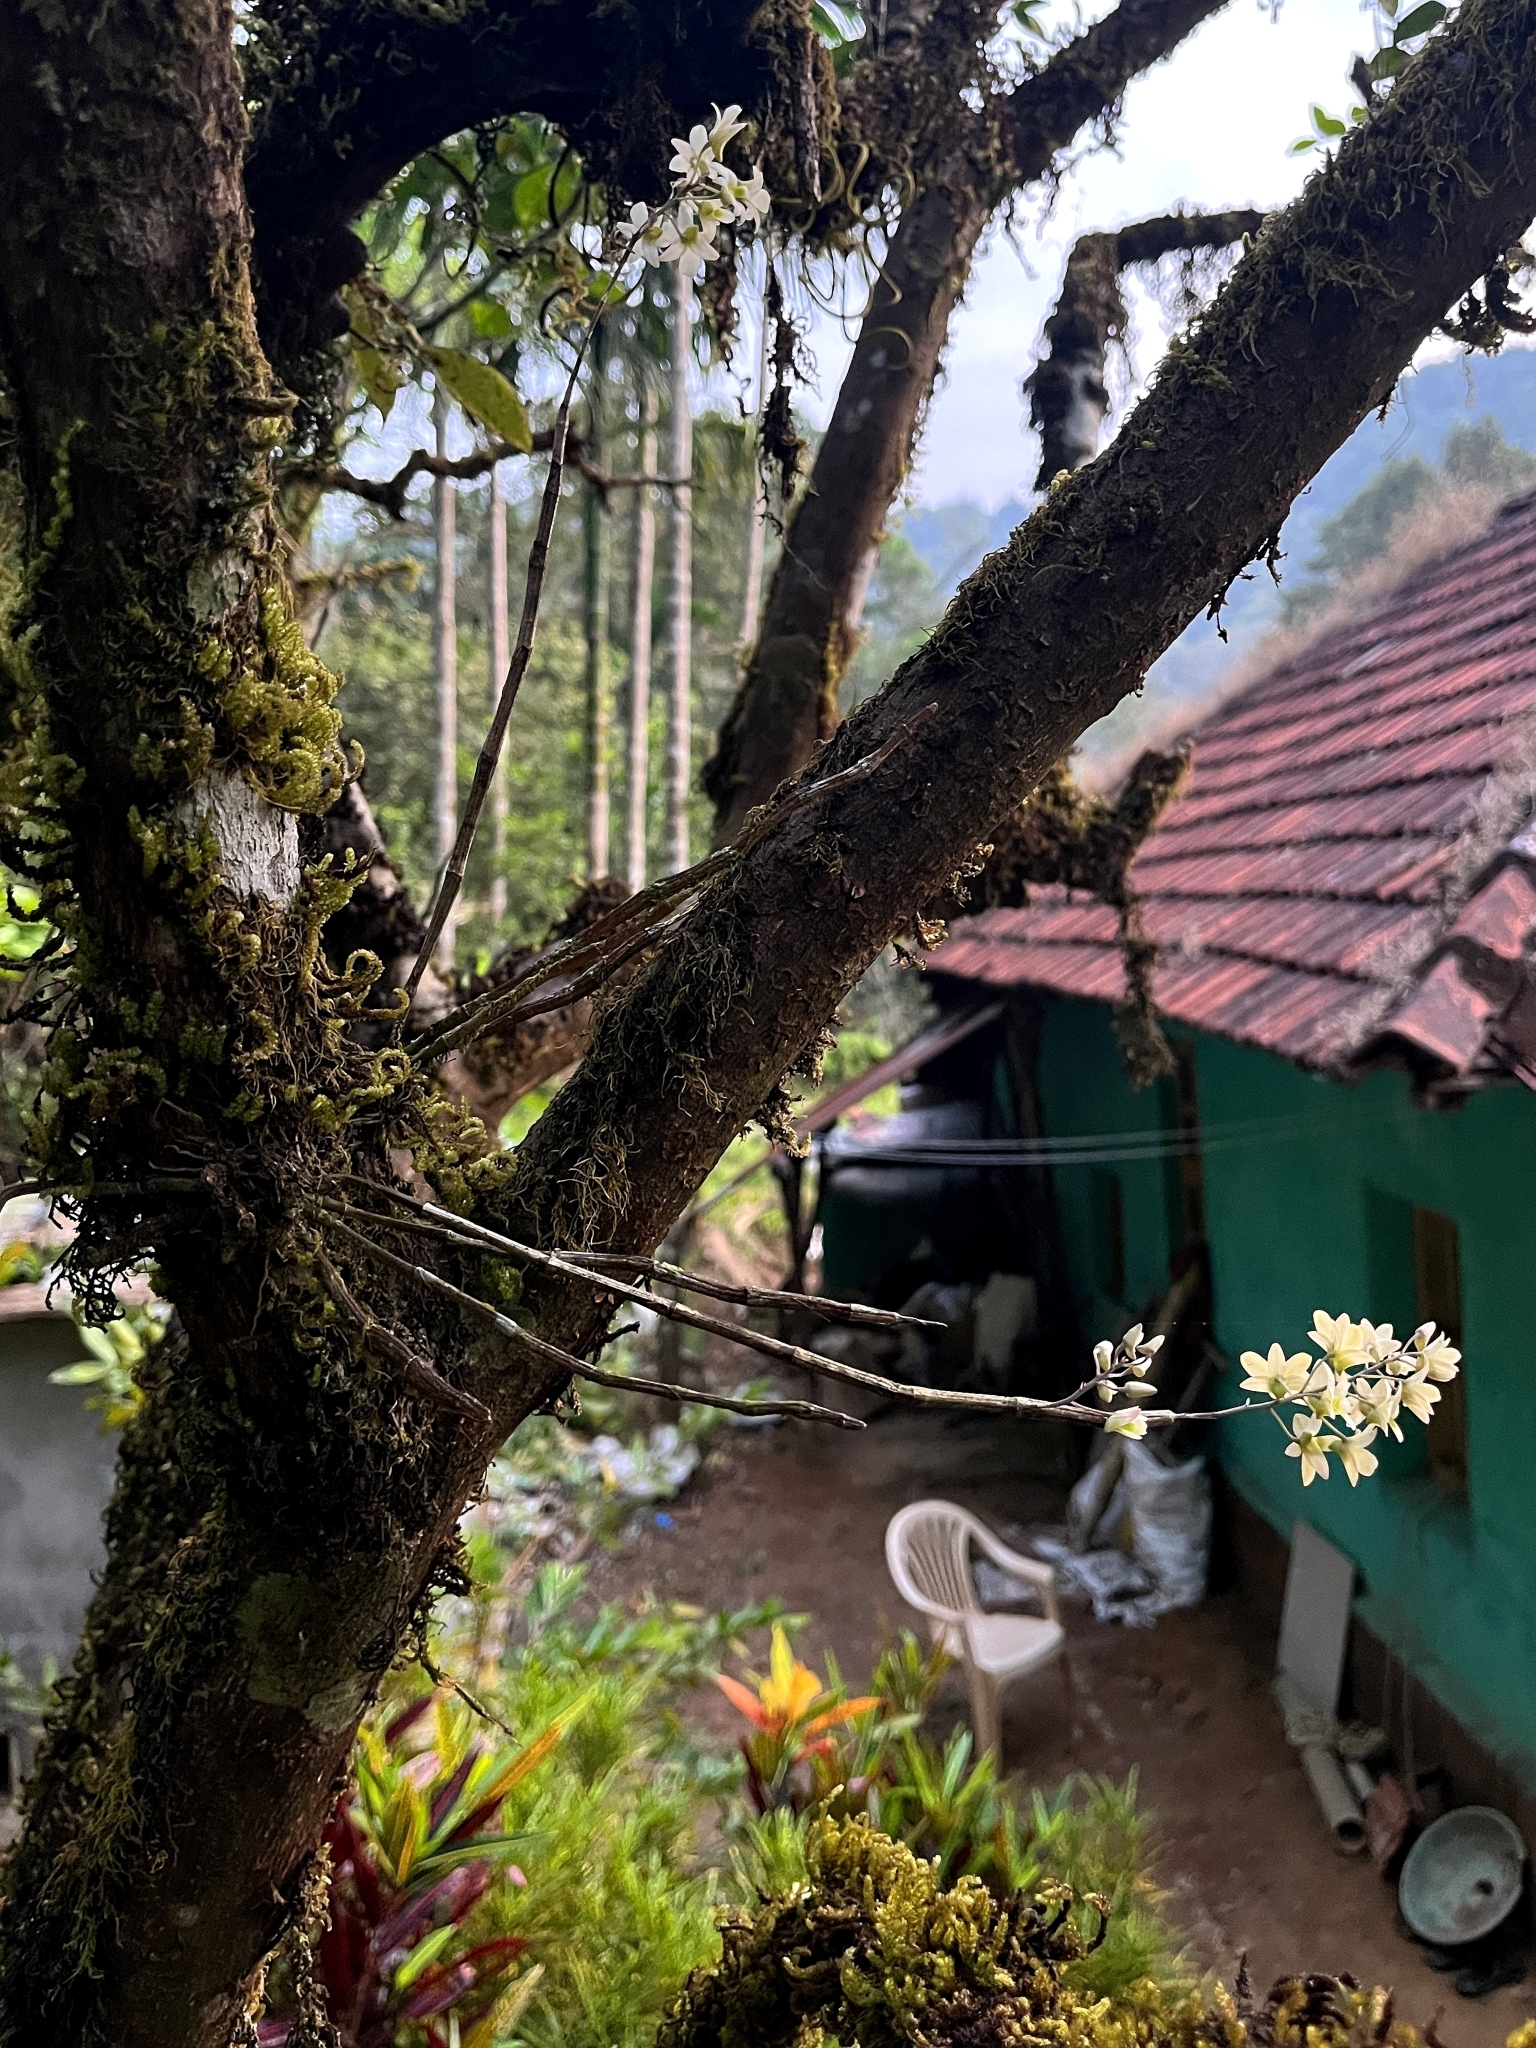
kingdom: Plantae
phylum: Tracheophyta
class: Liliopsida
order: Asparagales
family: Orchidaceae
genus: Dendrobium
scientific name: Dendrobium ovatum
